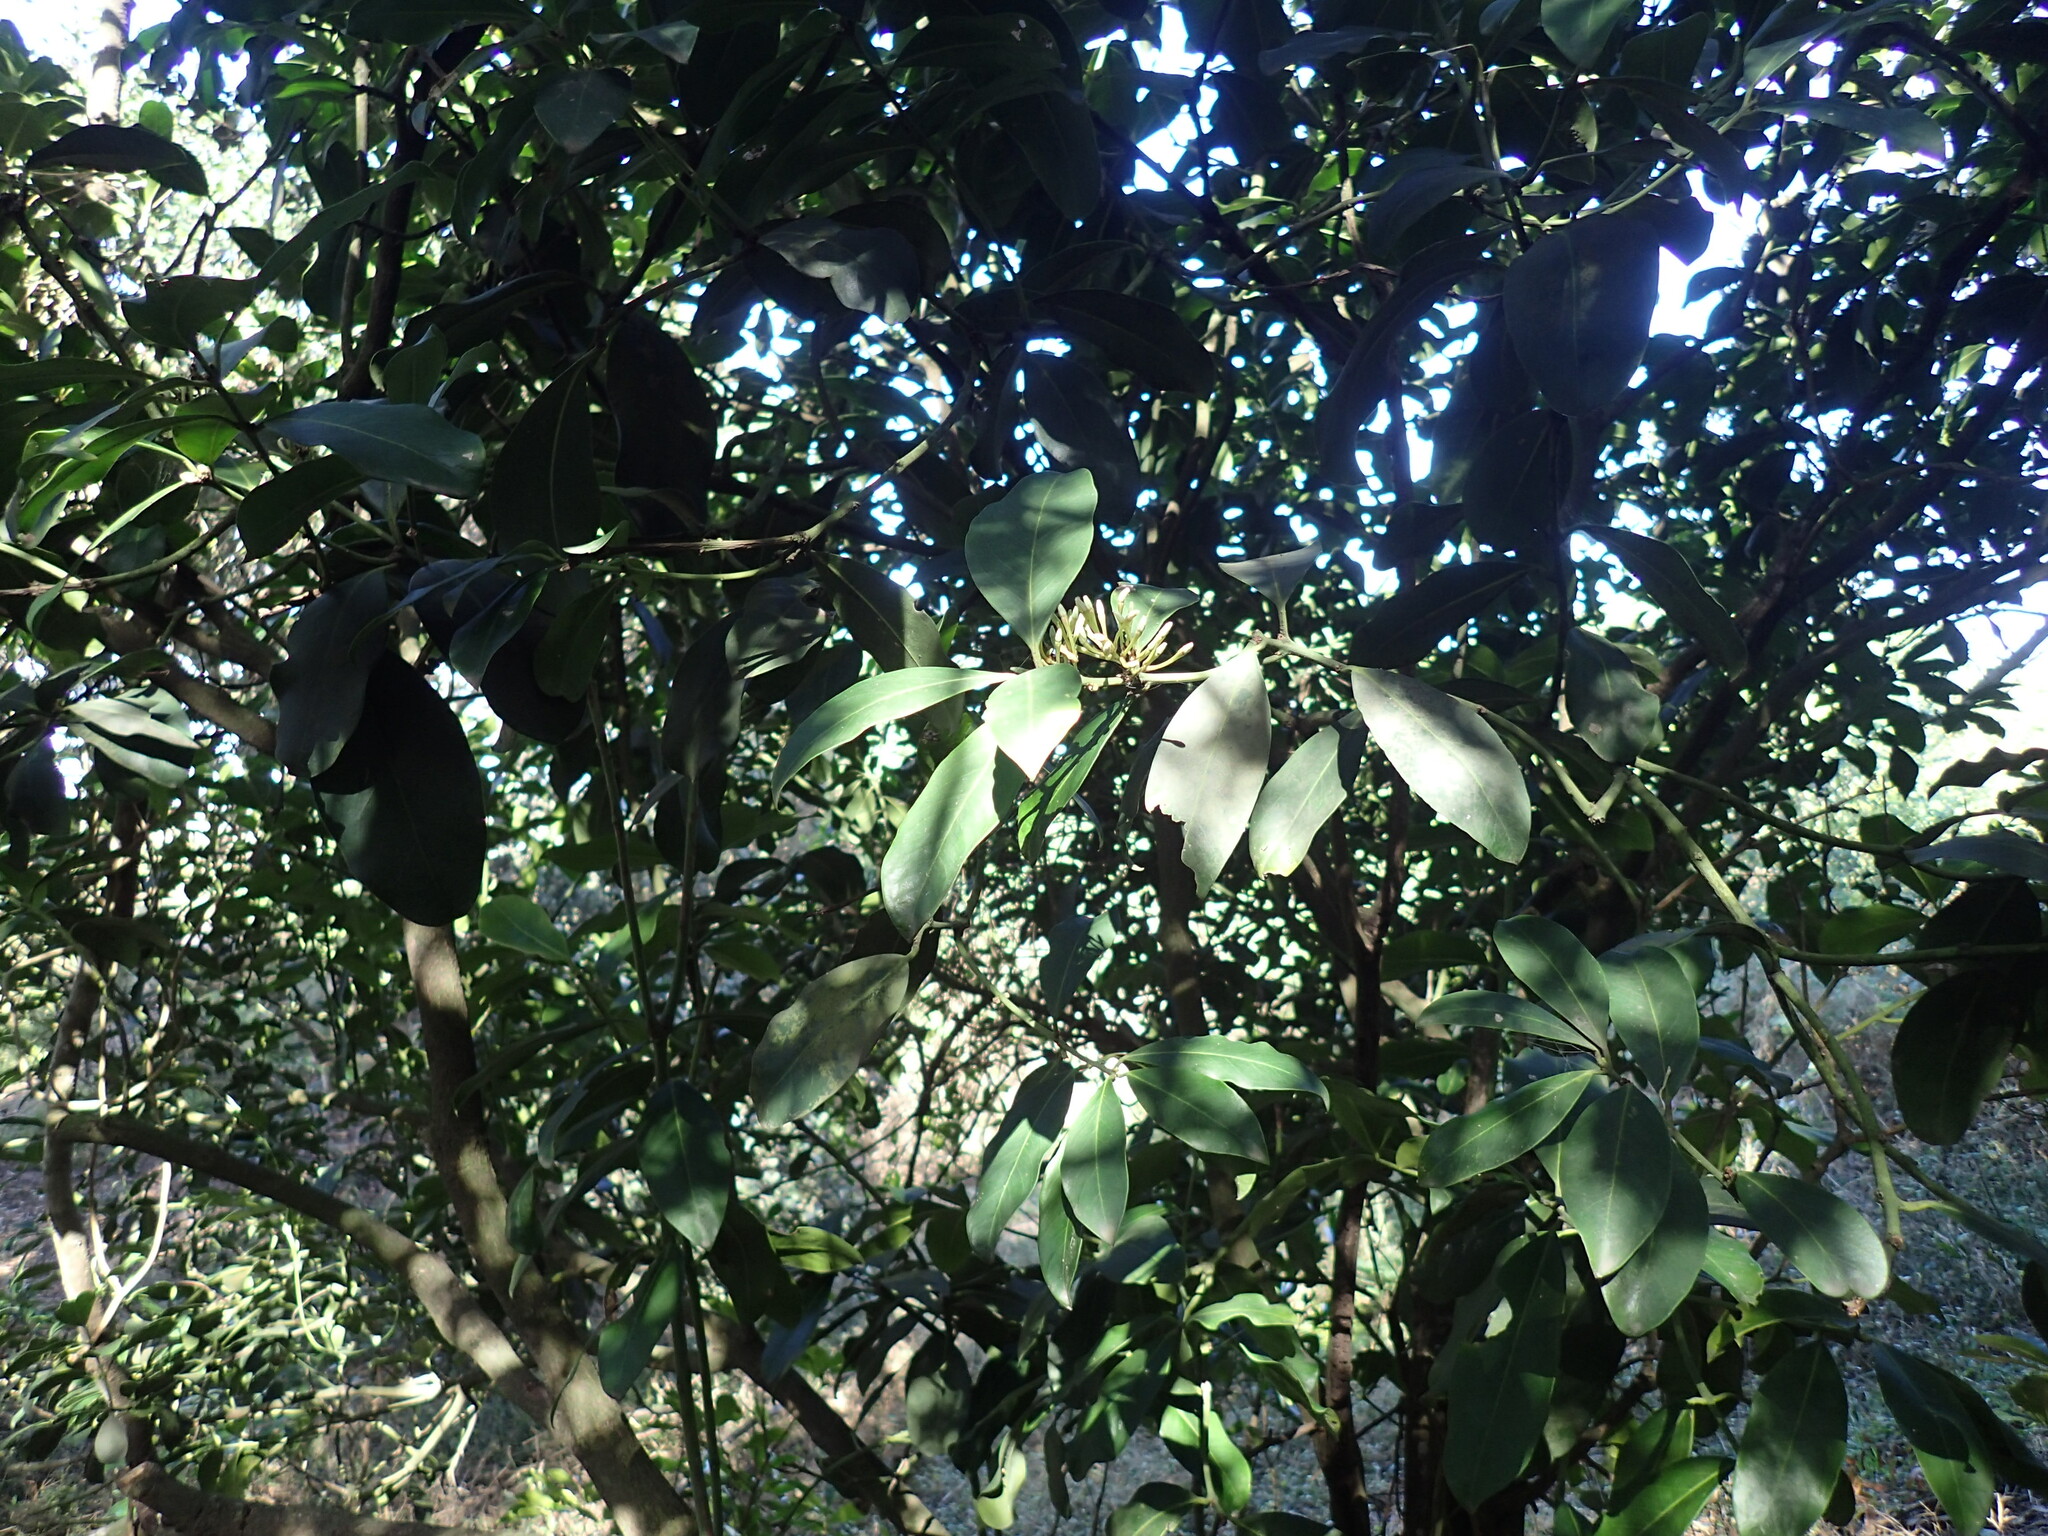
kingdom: Plantae
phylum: Tracheophyta
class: Magnoliopsida
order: Gentianales
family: Apocynaceae
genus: Acokanthera
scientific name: Acokanthera oblongifolia
